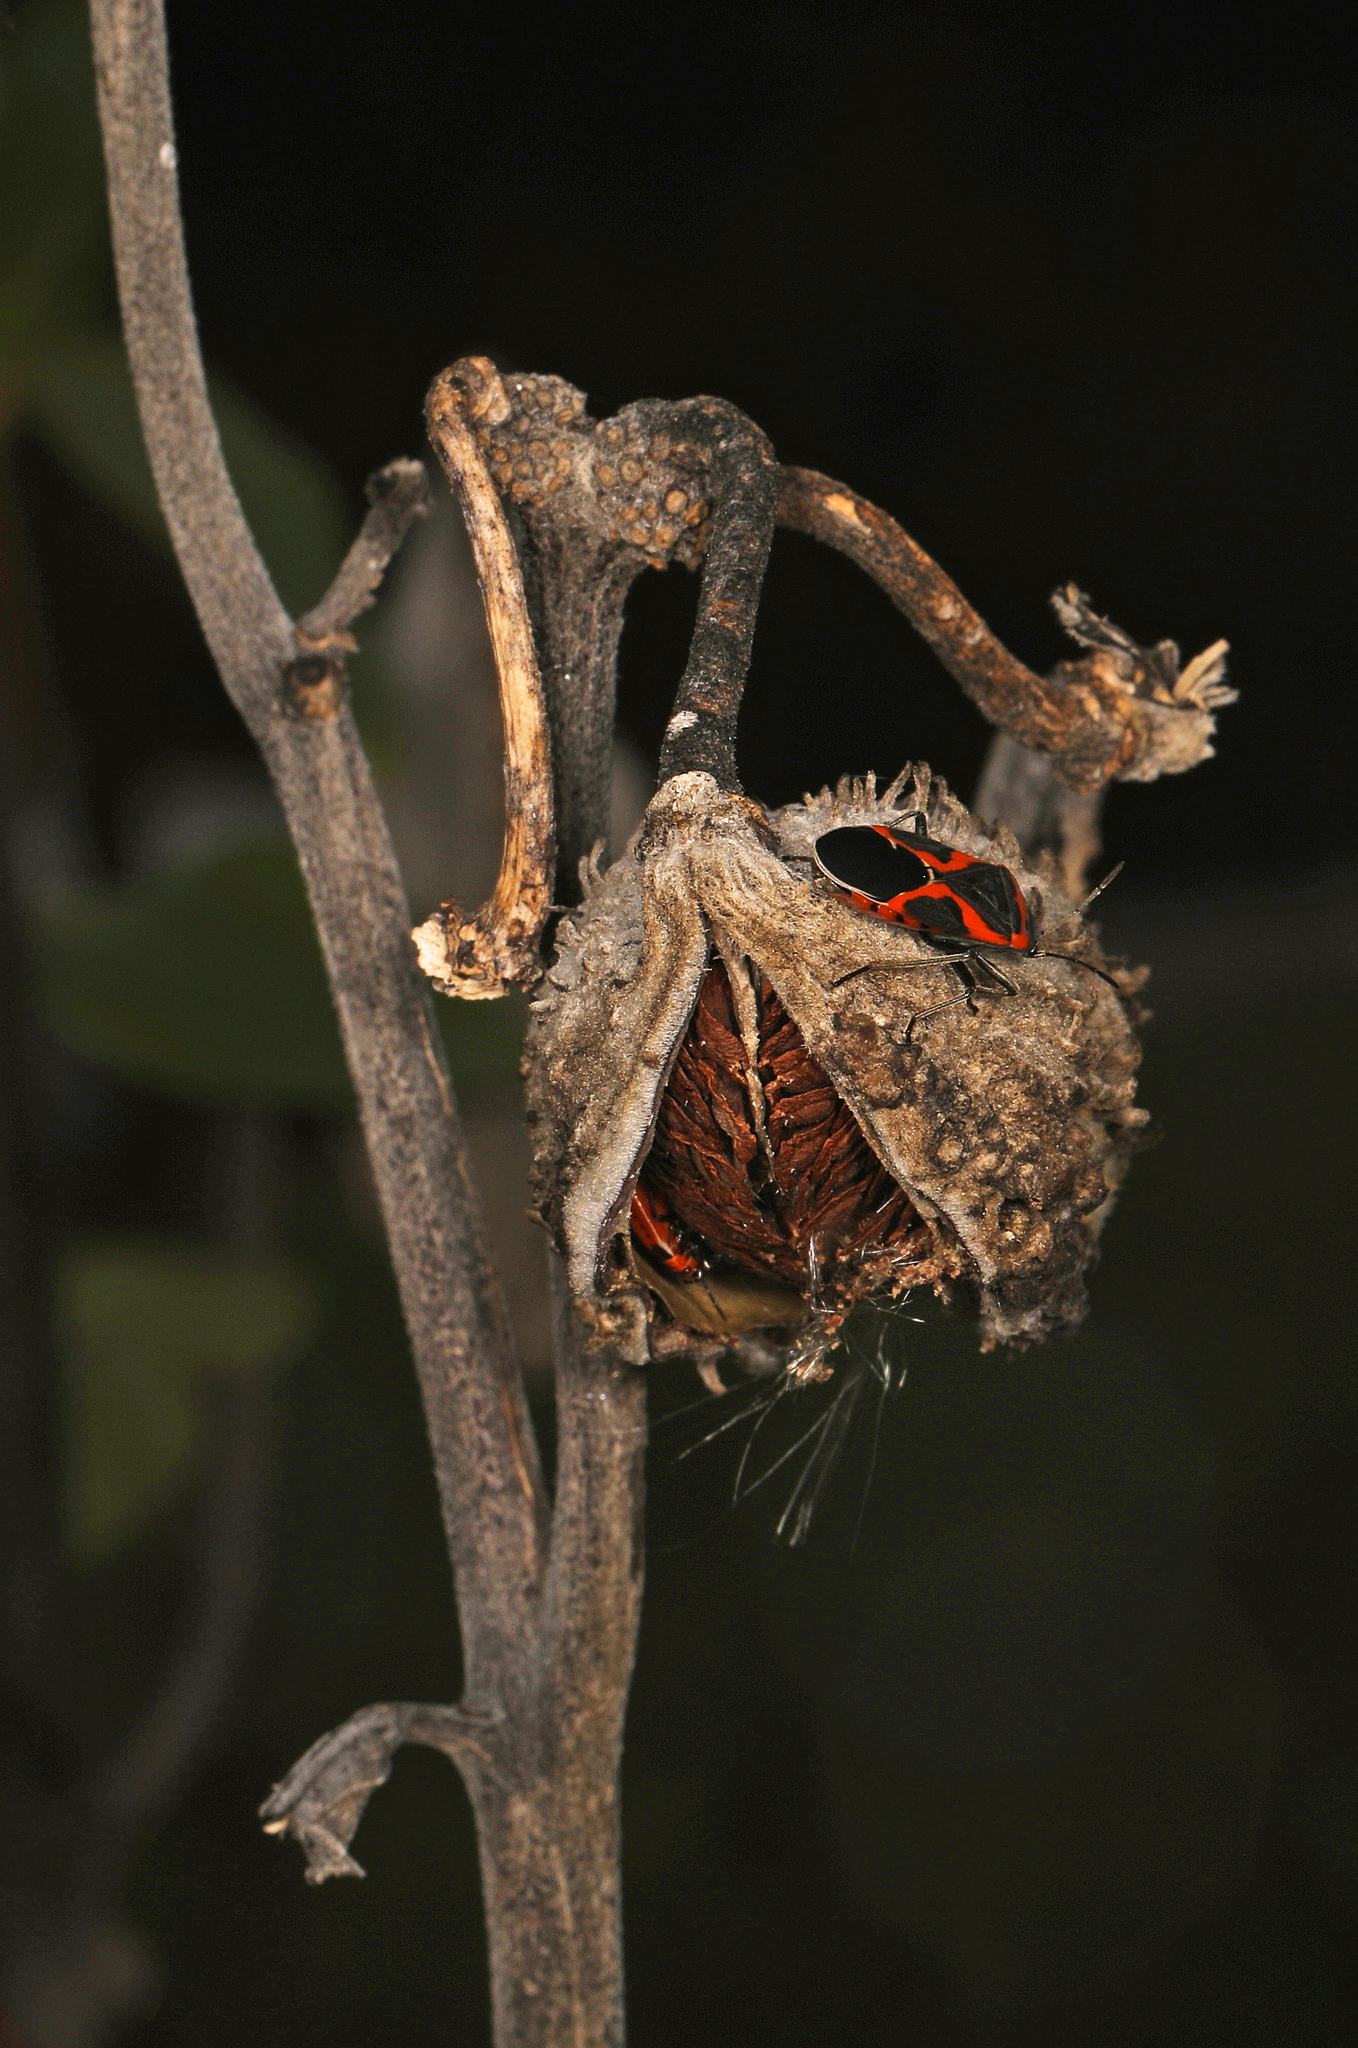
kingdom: Animalia
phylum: Arthropoda
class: Insecta
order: Hemiptera
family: Lygaeidae
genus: Lygaeus
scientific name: Lygaeus kalmii
